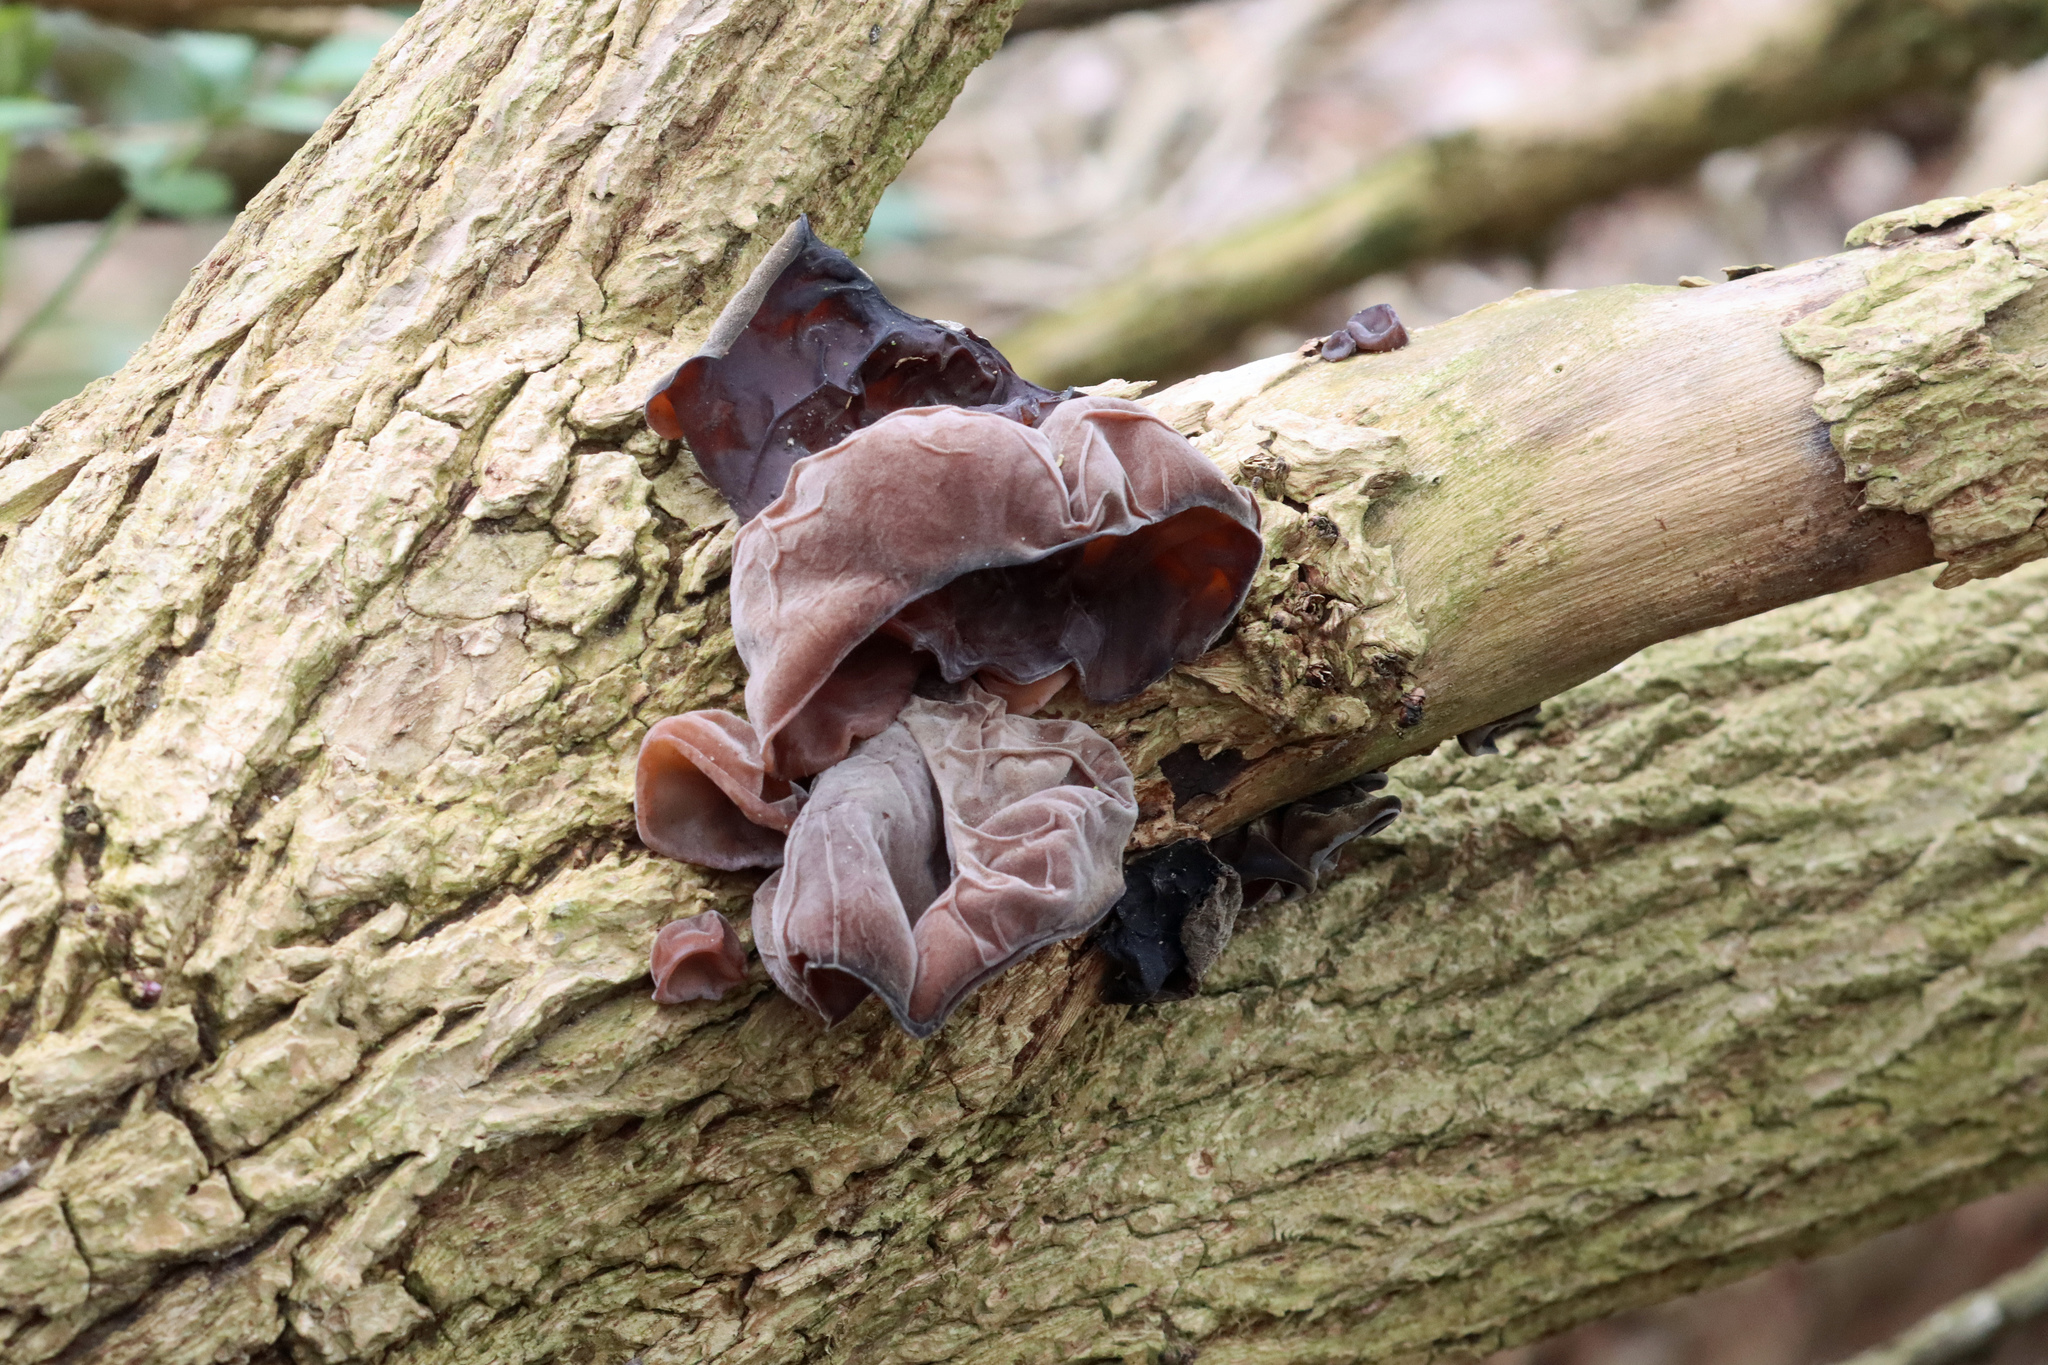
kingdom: Fungi
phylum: Basidiomycota
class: Agaricomycetes
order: Auriculariales
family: Auriculariaceae
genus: Auricularia
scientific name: Auricularia auricula-judae
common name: Jelly ear
